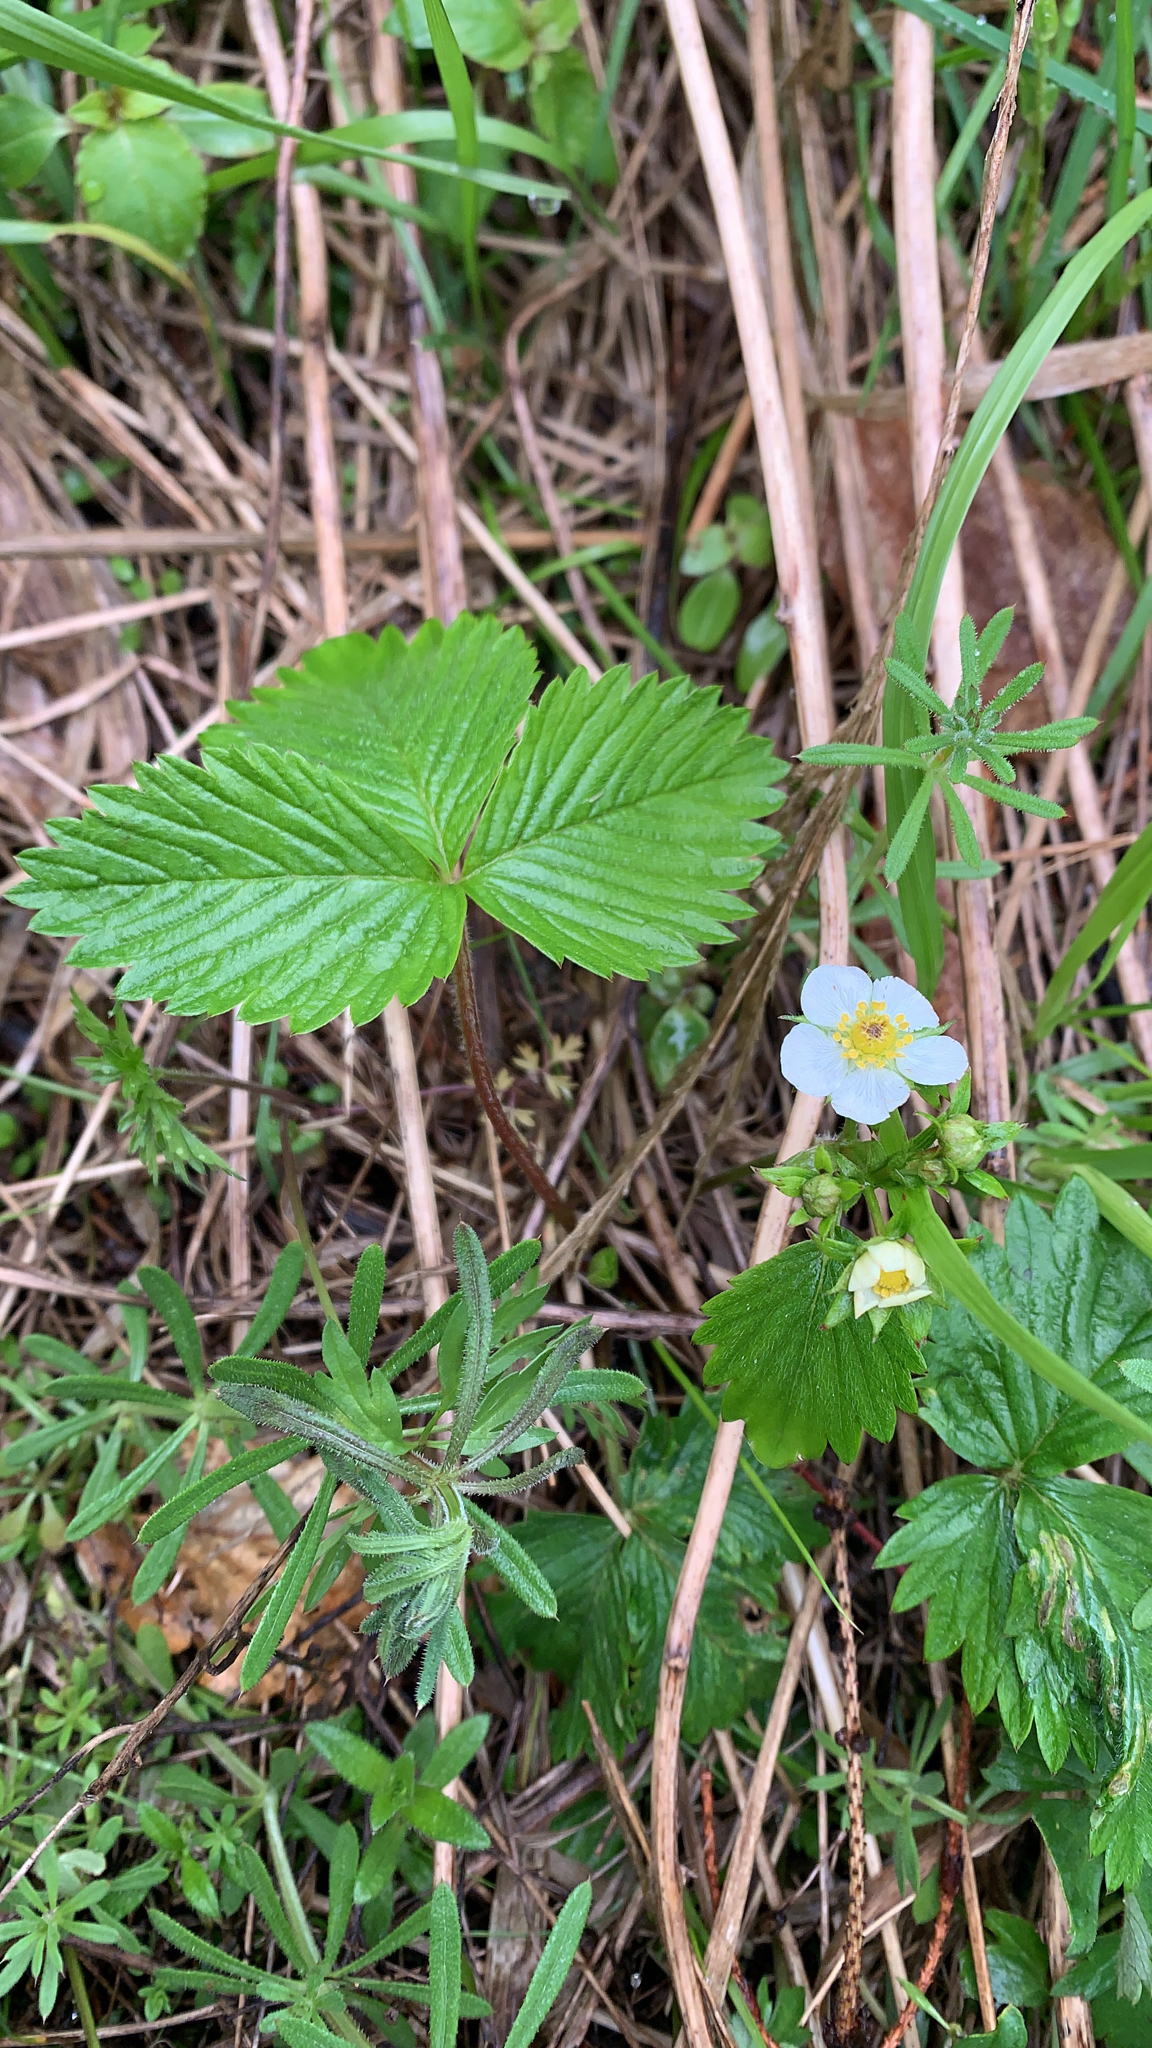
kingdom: Plantae
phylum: Tracheophyta
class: Magnoliopsida
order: Rosales
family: Rosaceae
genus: Fragaria
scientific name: Fragaria vesca
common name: Wild strawberry
